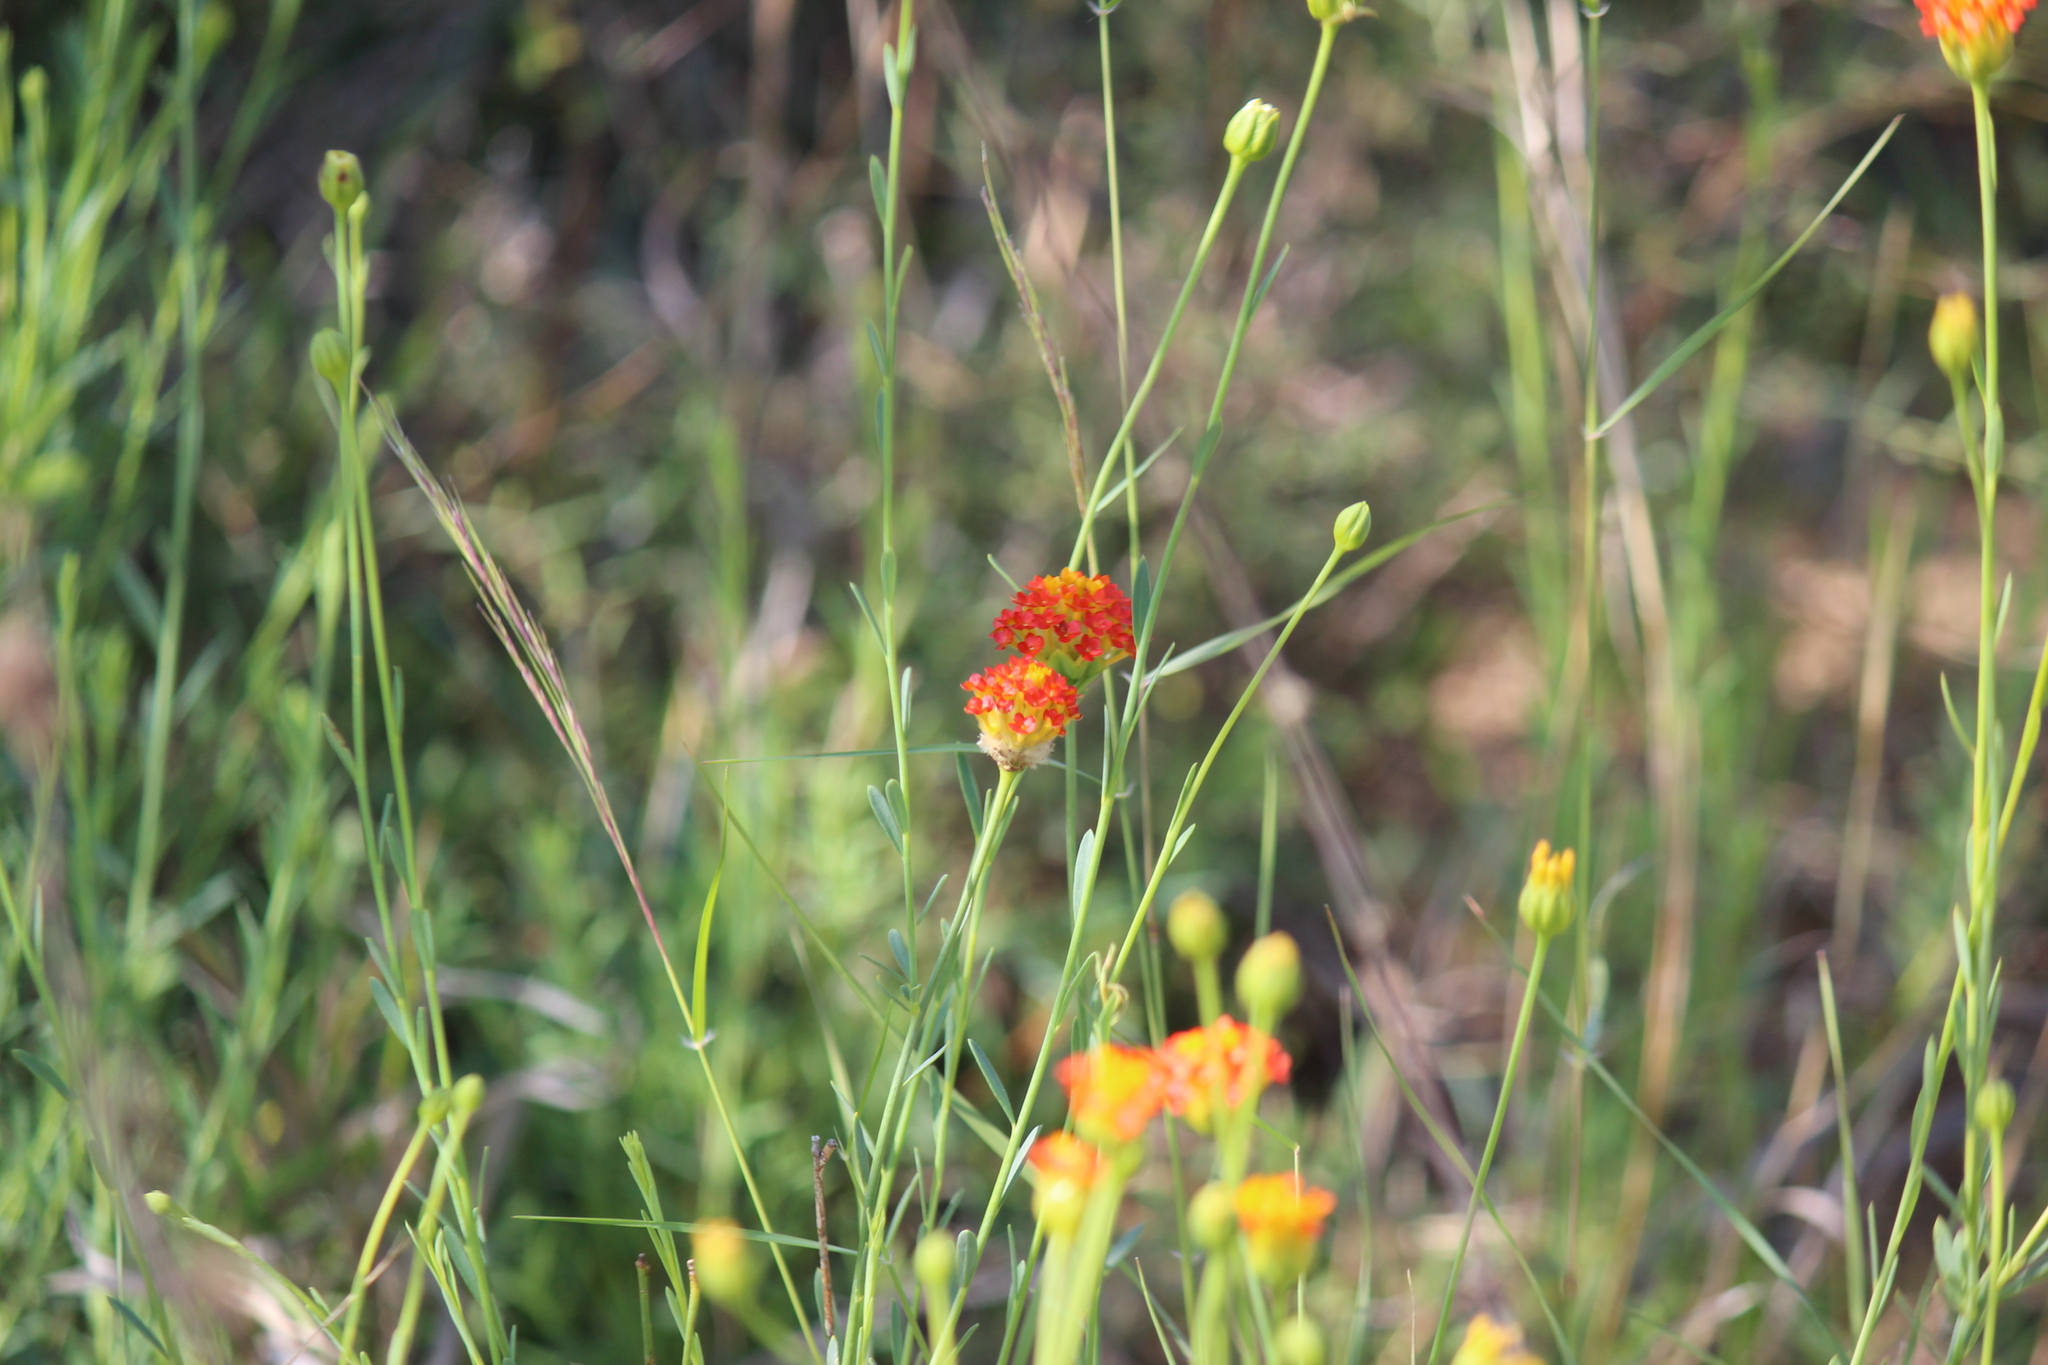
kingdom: Plantae
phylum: Tracheophyta
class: Magnoliopsida
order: Malvales
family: Thymelaeaceae
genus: Gnidia
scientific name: Gnidia rubescens
